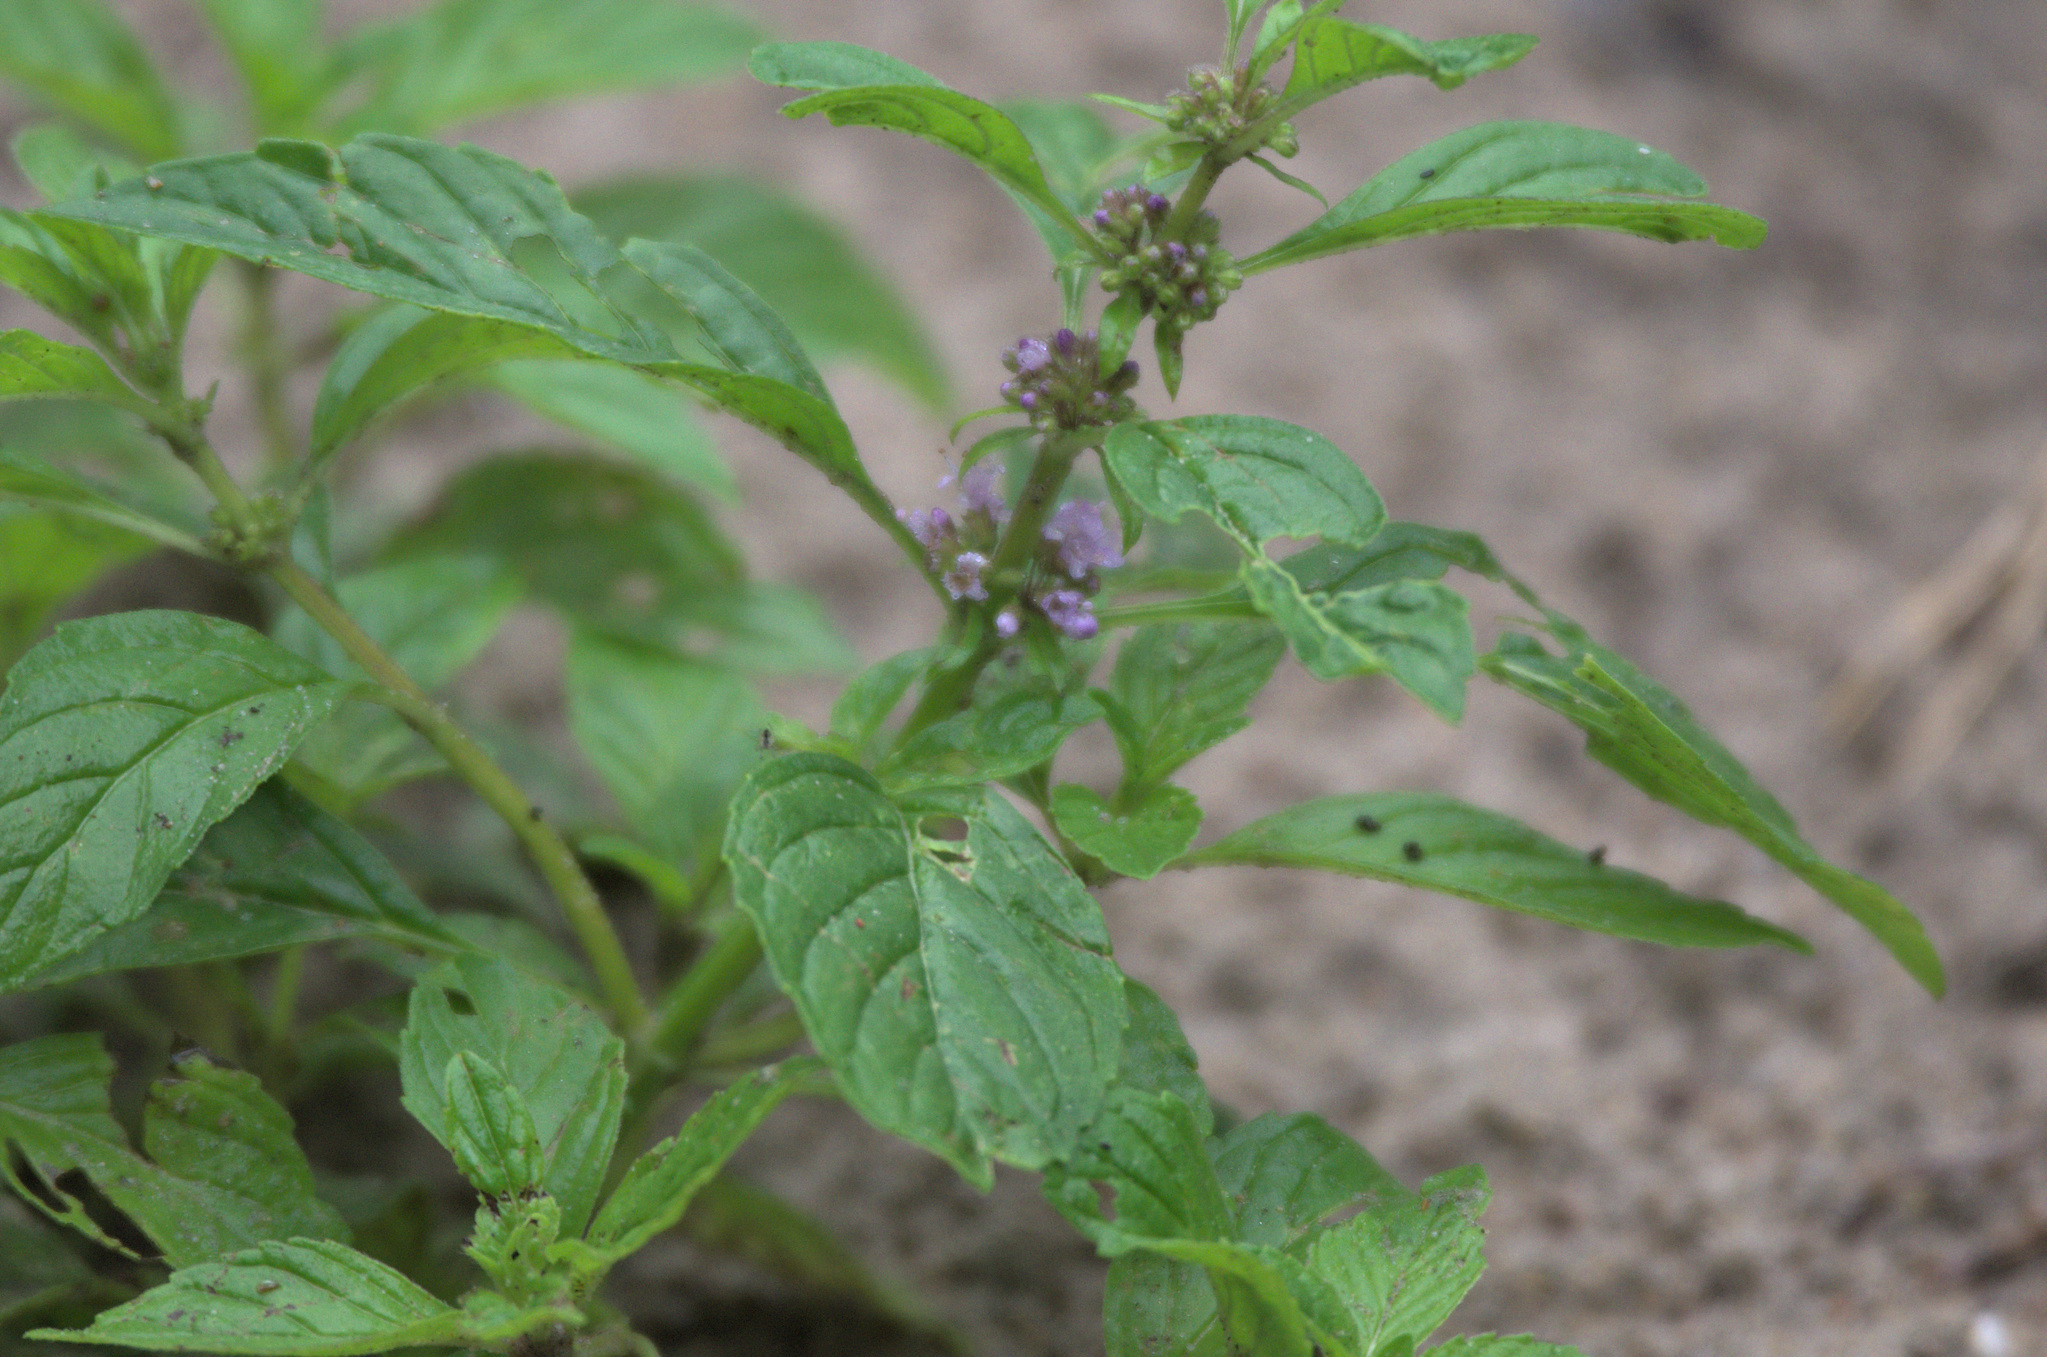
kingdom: Plantae
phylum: Tracheophyta
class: Magnoliopsida
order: Lamiales
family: Lamiaceae
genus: Mentha
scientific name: Mentha arvensis
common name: Corn mint
